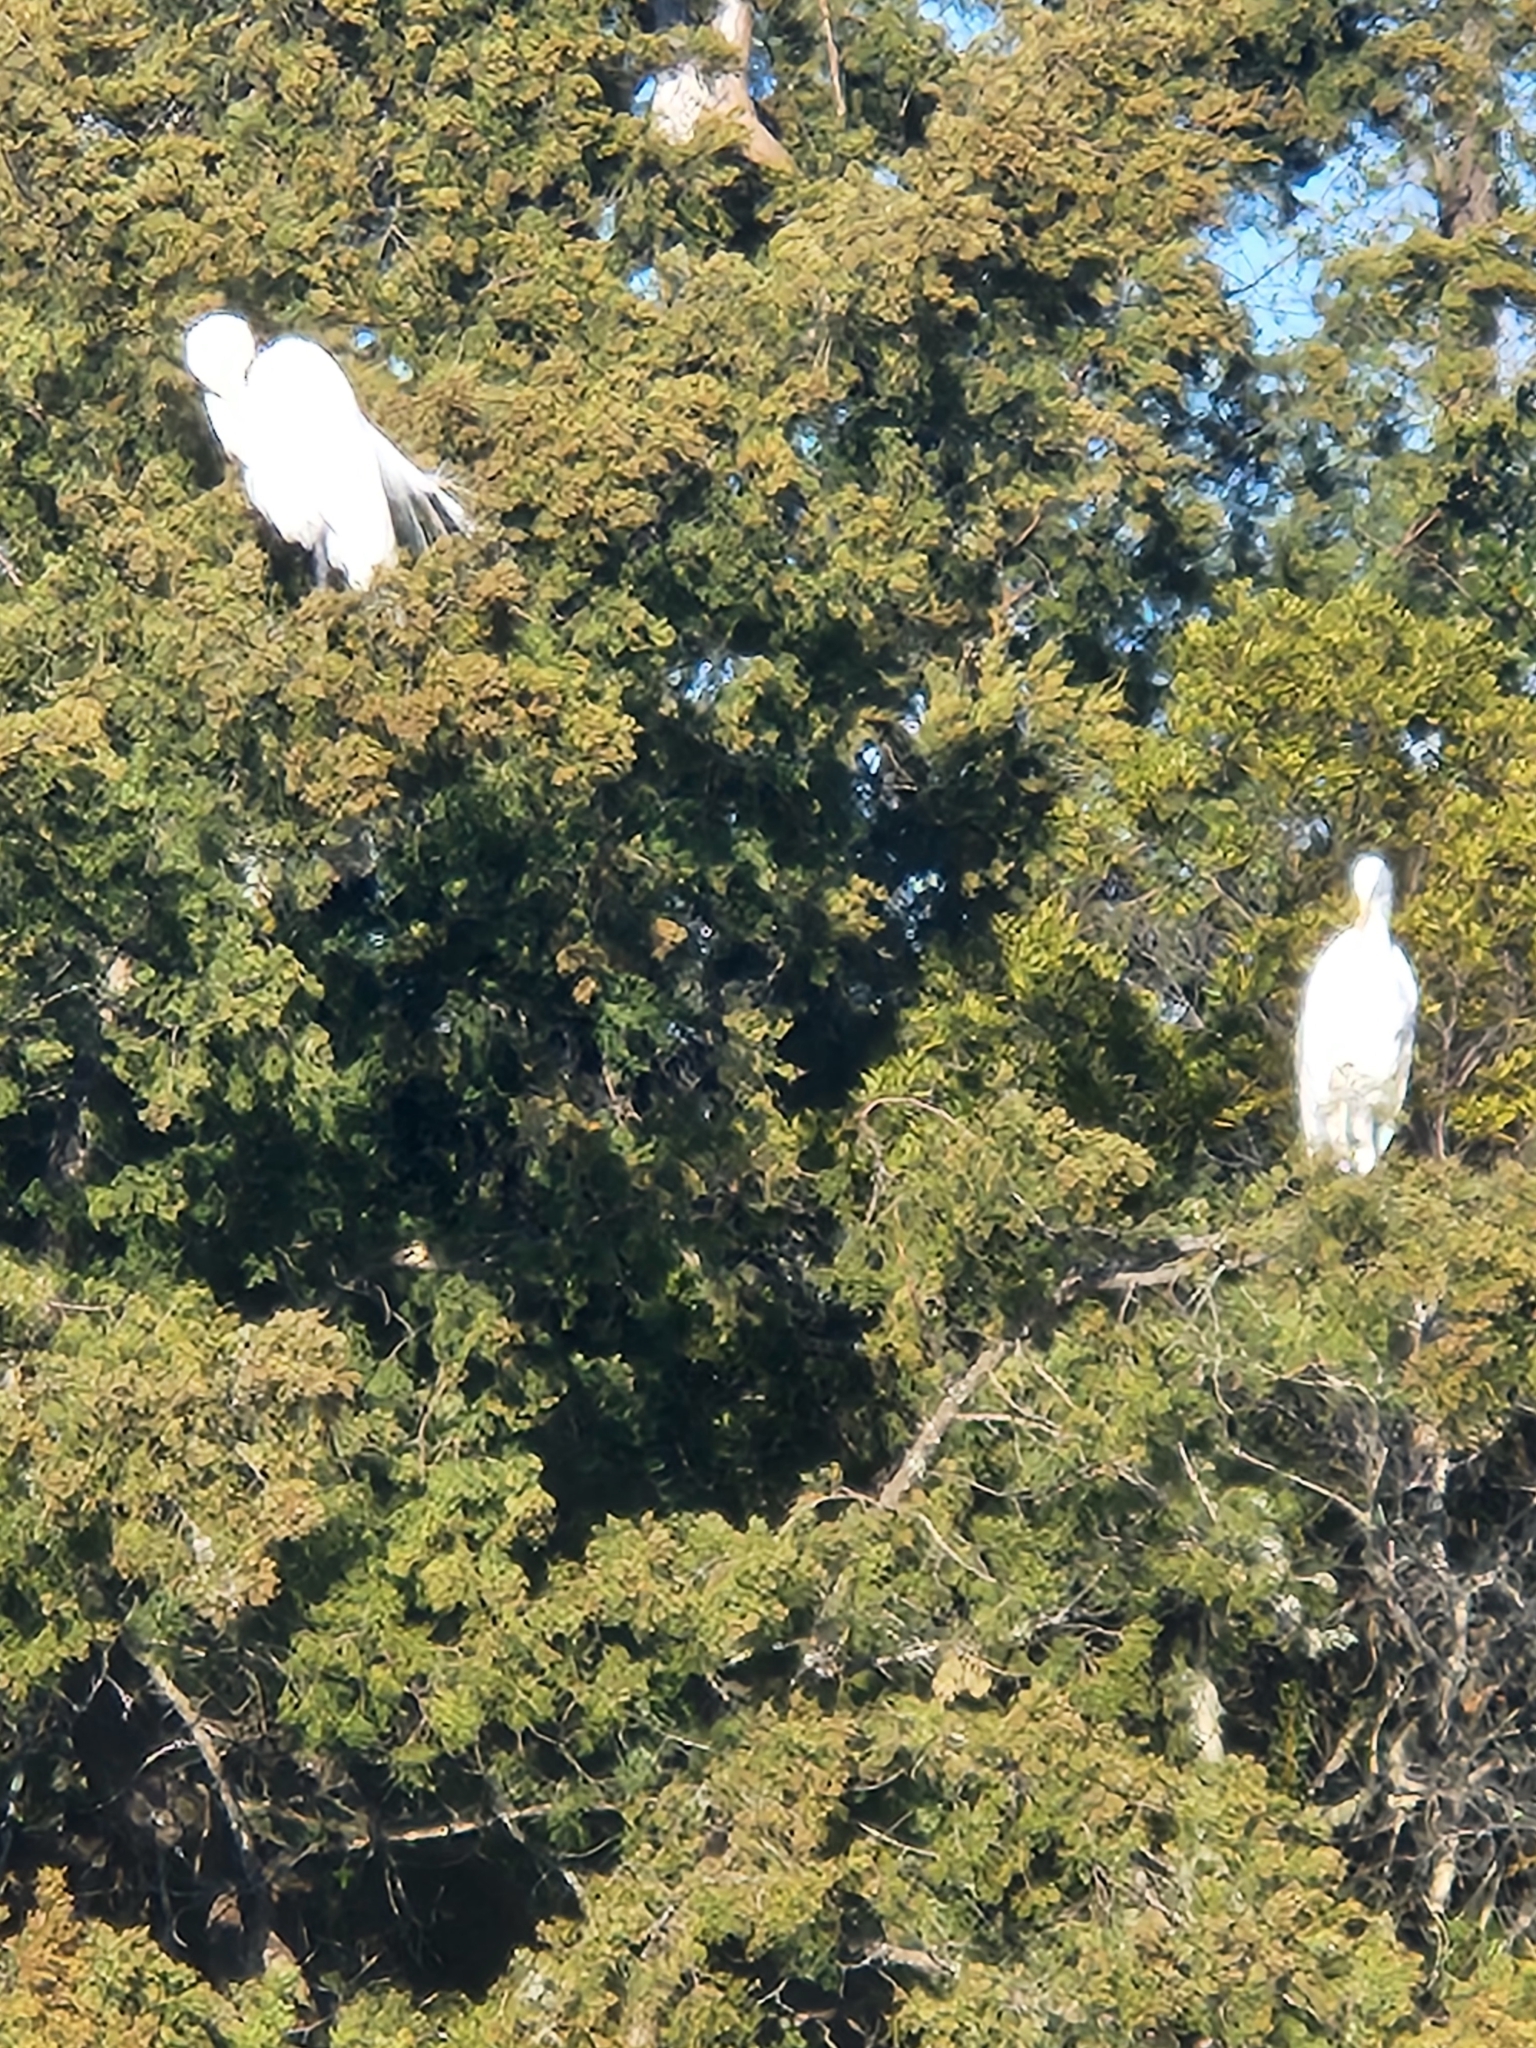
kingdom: Animalia
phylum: Chordata
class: Aves
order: Pelecaniformes
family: Ardeidae
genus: Ardea
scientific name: Ardea alba
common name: Great egret
